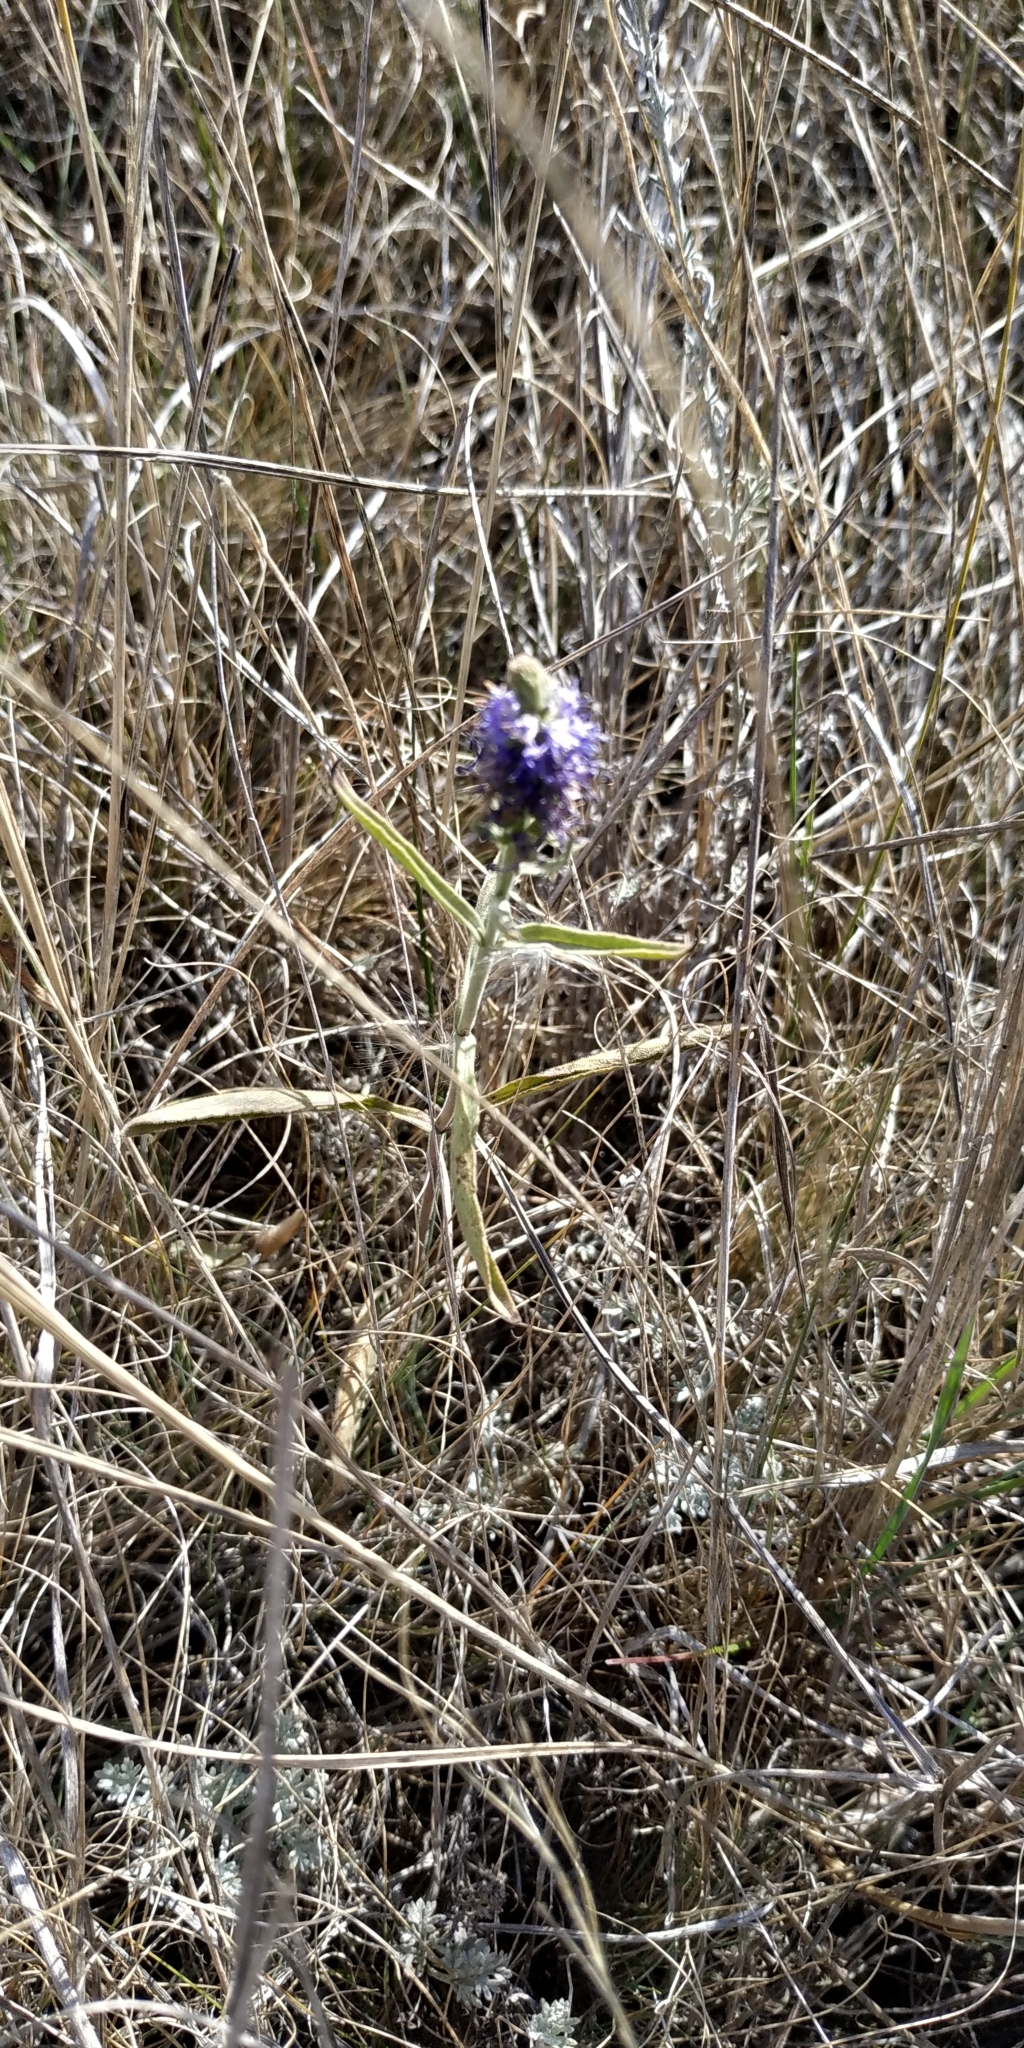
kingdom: Plantae
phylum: Tracheophyta
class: Magnoliopsida
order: Lamiales
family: Plantaginaceae
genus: Veronica
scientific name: Veronica spicata
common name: Spiked speedwell
